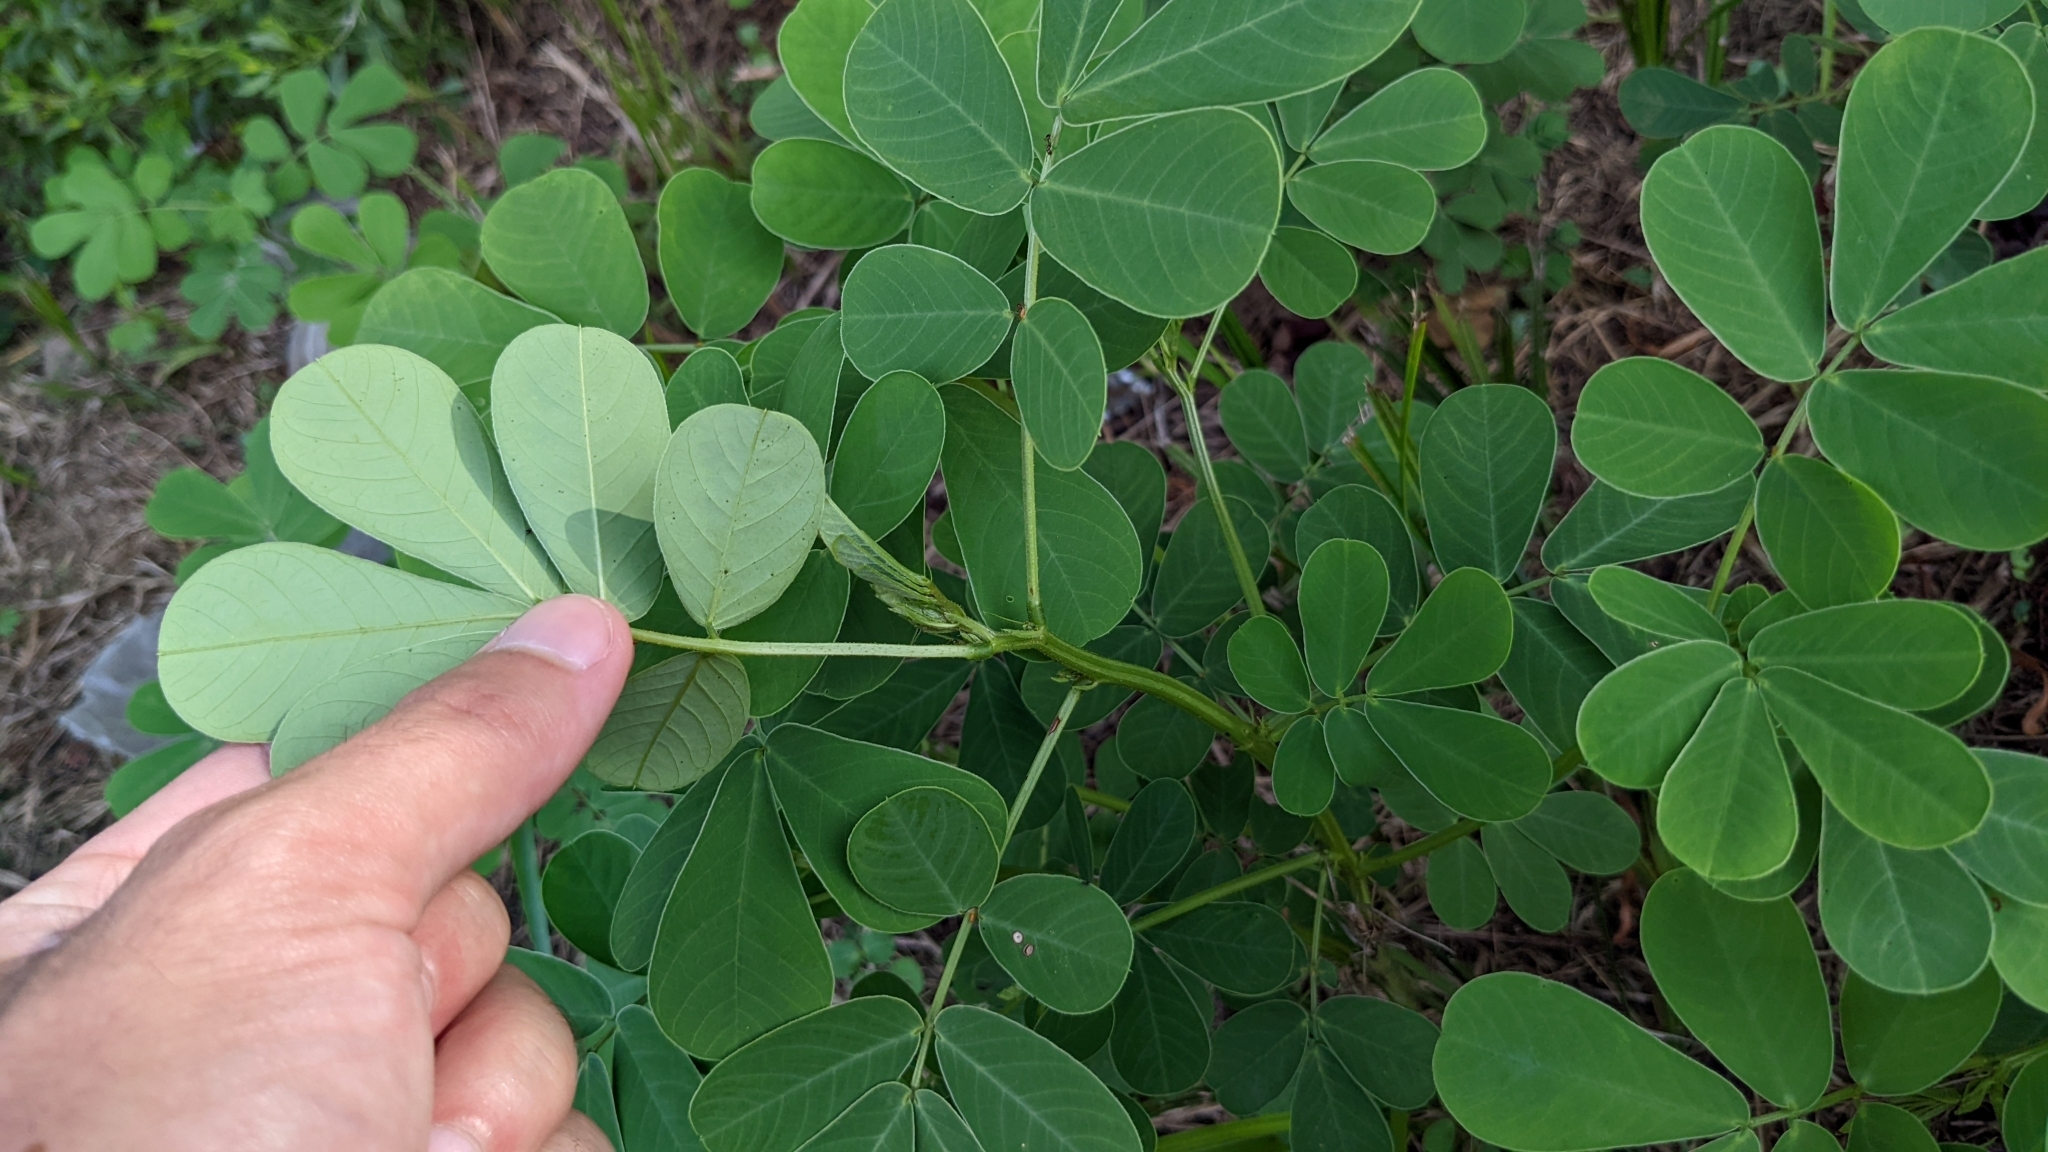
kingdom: Plantae
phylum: Tracheophyta
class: Magnoliopsida
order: Fabales
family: Fabaceae
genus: Senna
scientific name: Senna obtusifolia
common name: Java-bean
